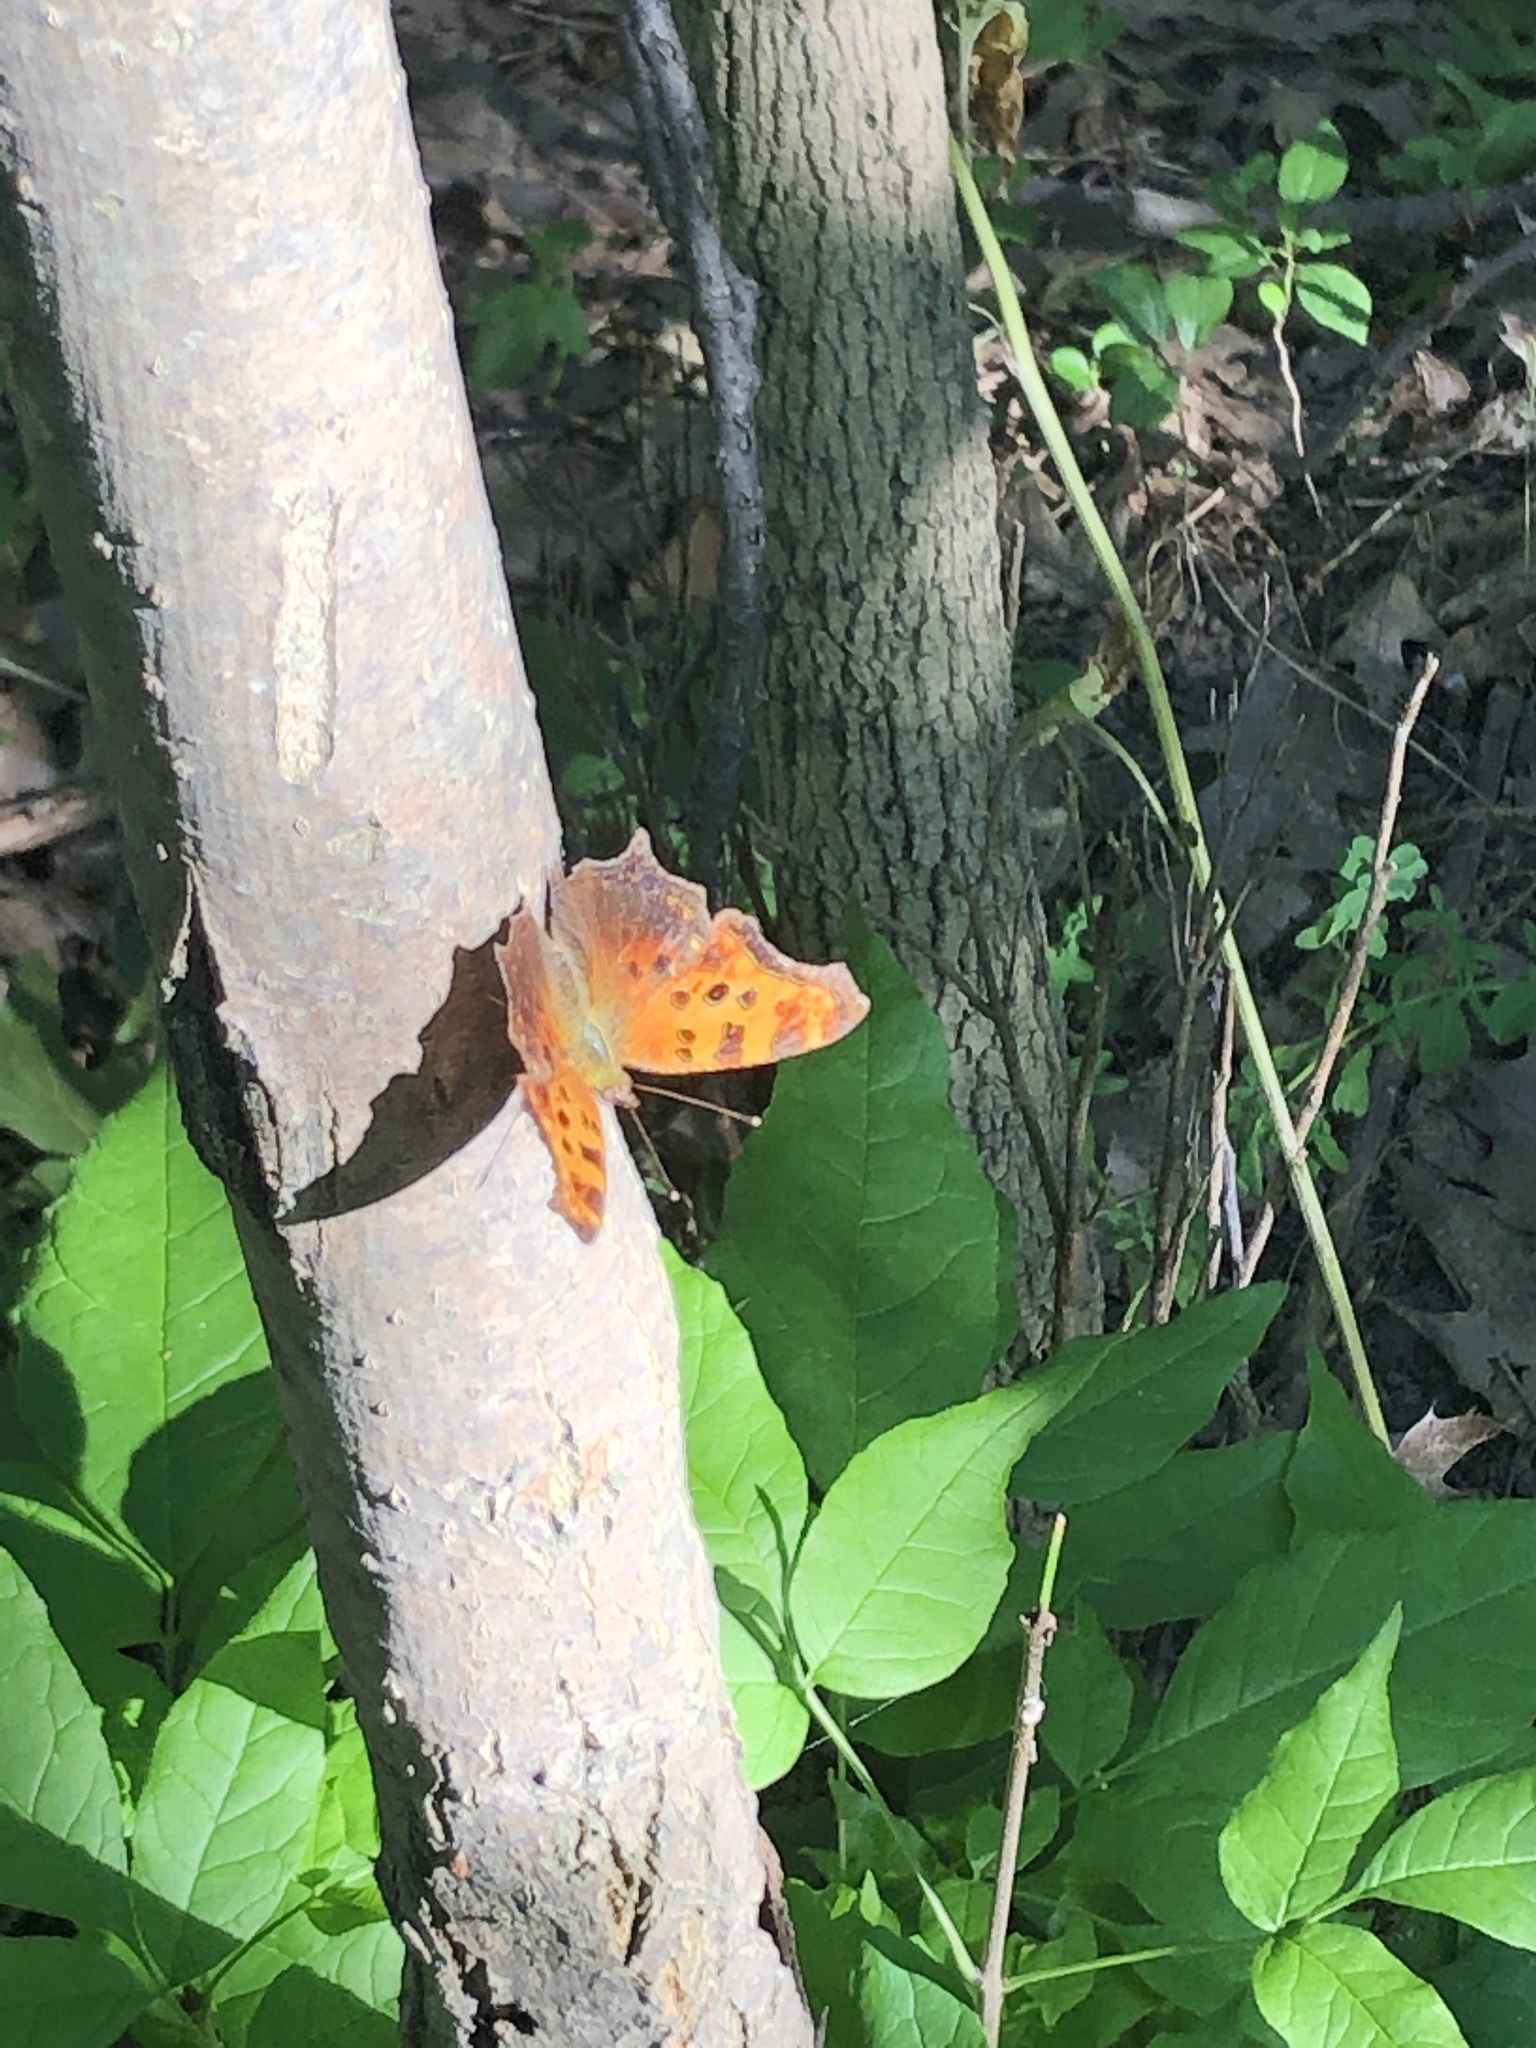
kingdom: Animalia
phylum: Arthropoda
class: Insecta
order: Lepidoptera
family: Nymphalidae
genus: Polygonia
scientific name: Polygonia comma
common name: Eastern comma
